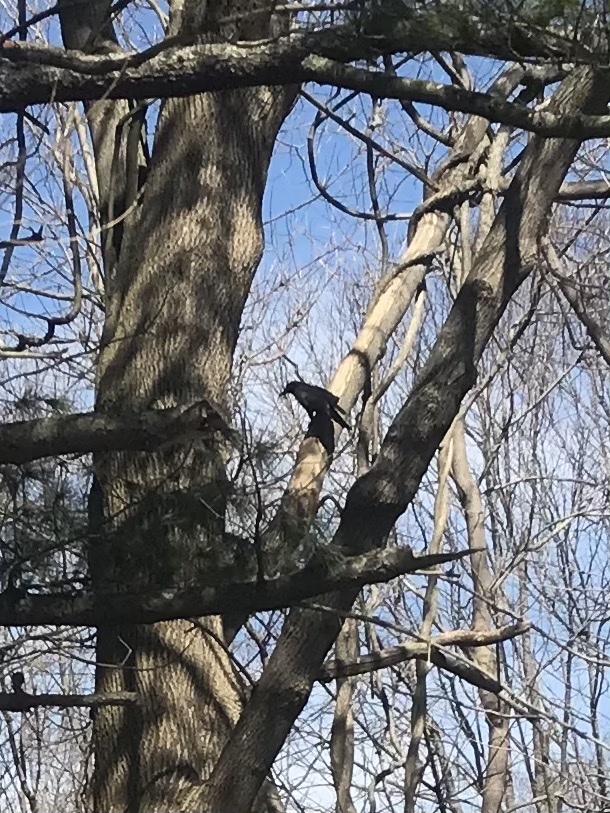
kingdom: Animalia
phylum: Chordata
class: Aves
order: Passeriformes
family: Corvidae
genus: Corvus
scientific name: Corvus brachyrhynchos
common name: American crow
